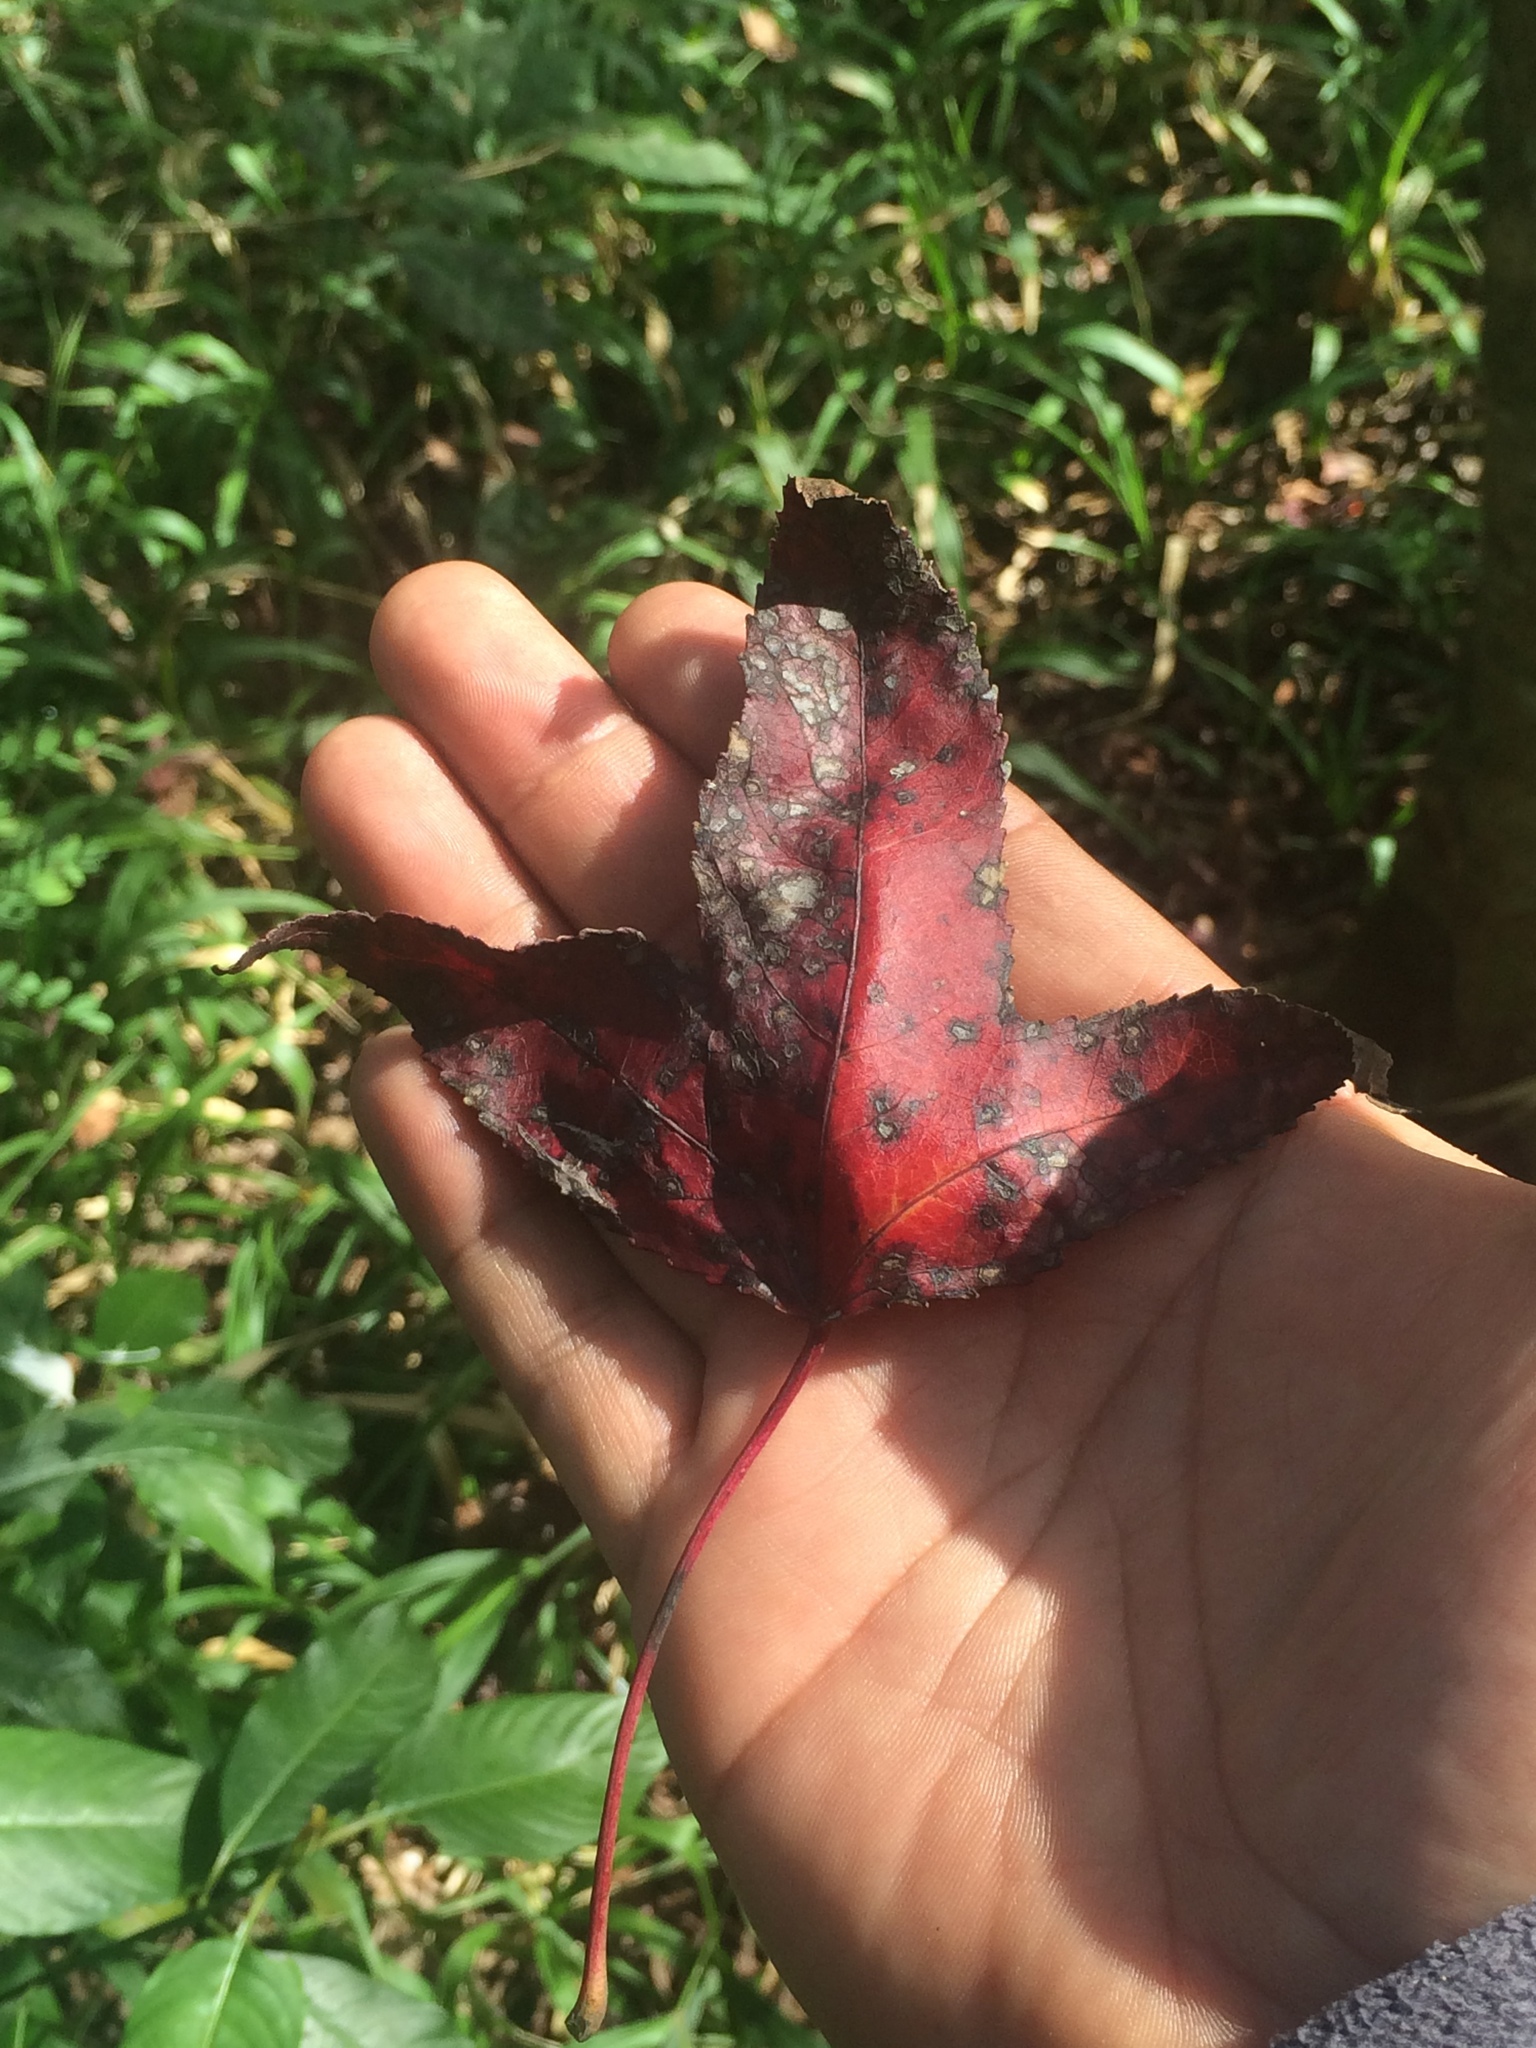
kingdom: Plantae
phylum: Tracheophyta
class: Magnoliopsida
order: Saxifragales
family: Altingiaceae
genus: Liquidambar
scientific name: Liquidambar styraciflua
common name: Sweet gum
